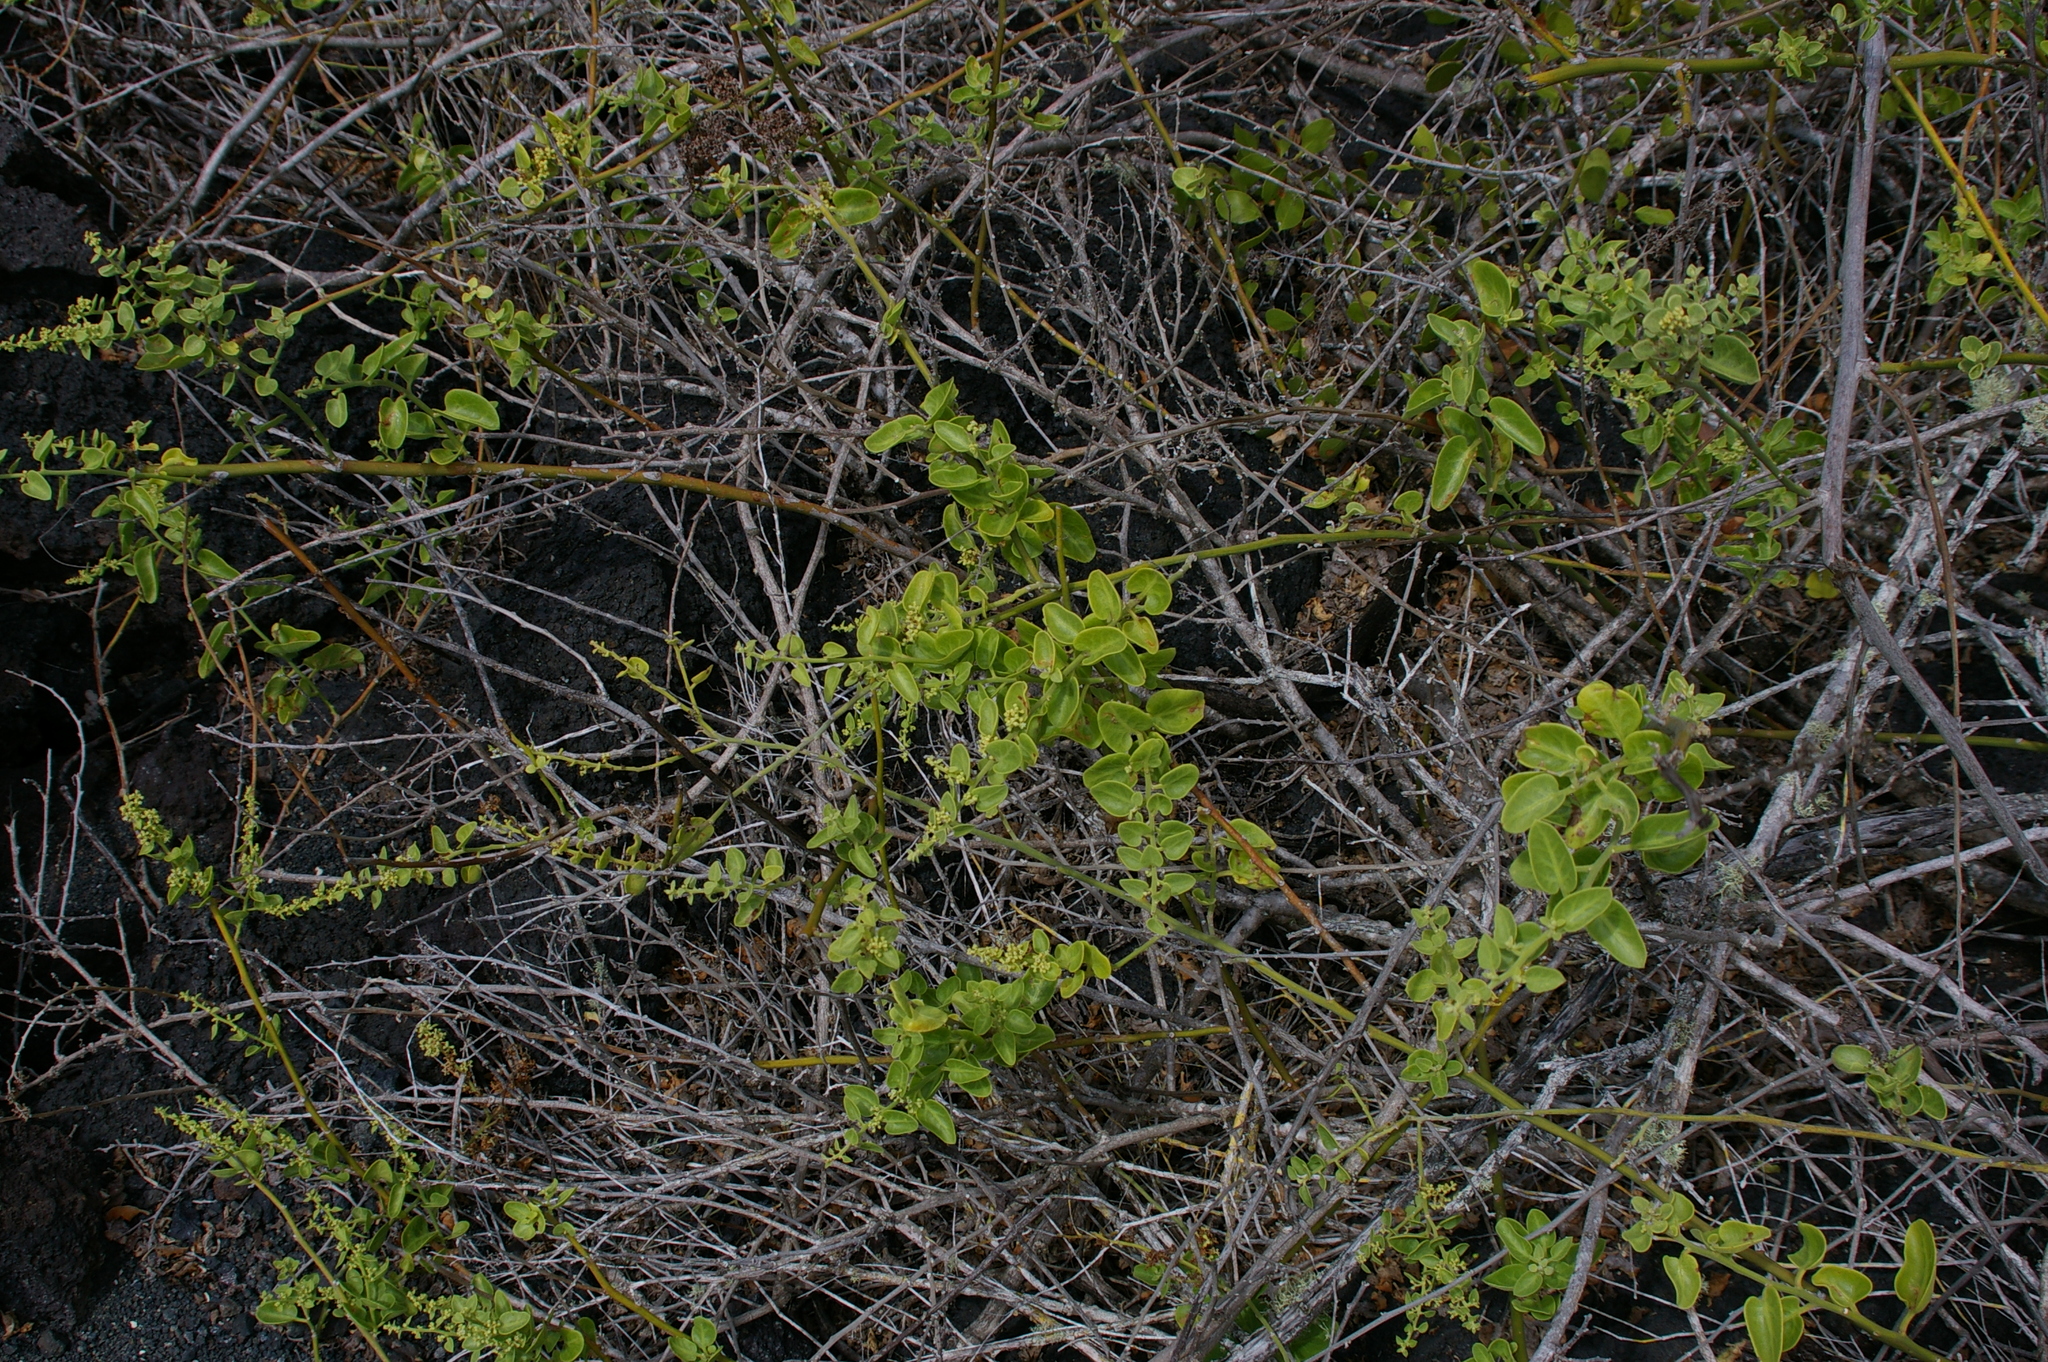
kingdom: Plantae
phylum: Tracheophyta
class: Magnoliopsida
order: Caryophyllales
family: Nyctaginaceae
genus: Cryptocarpus
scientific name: Cryptocarpus pyriformis
